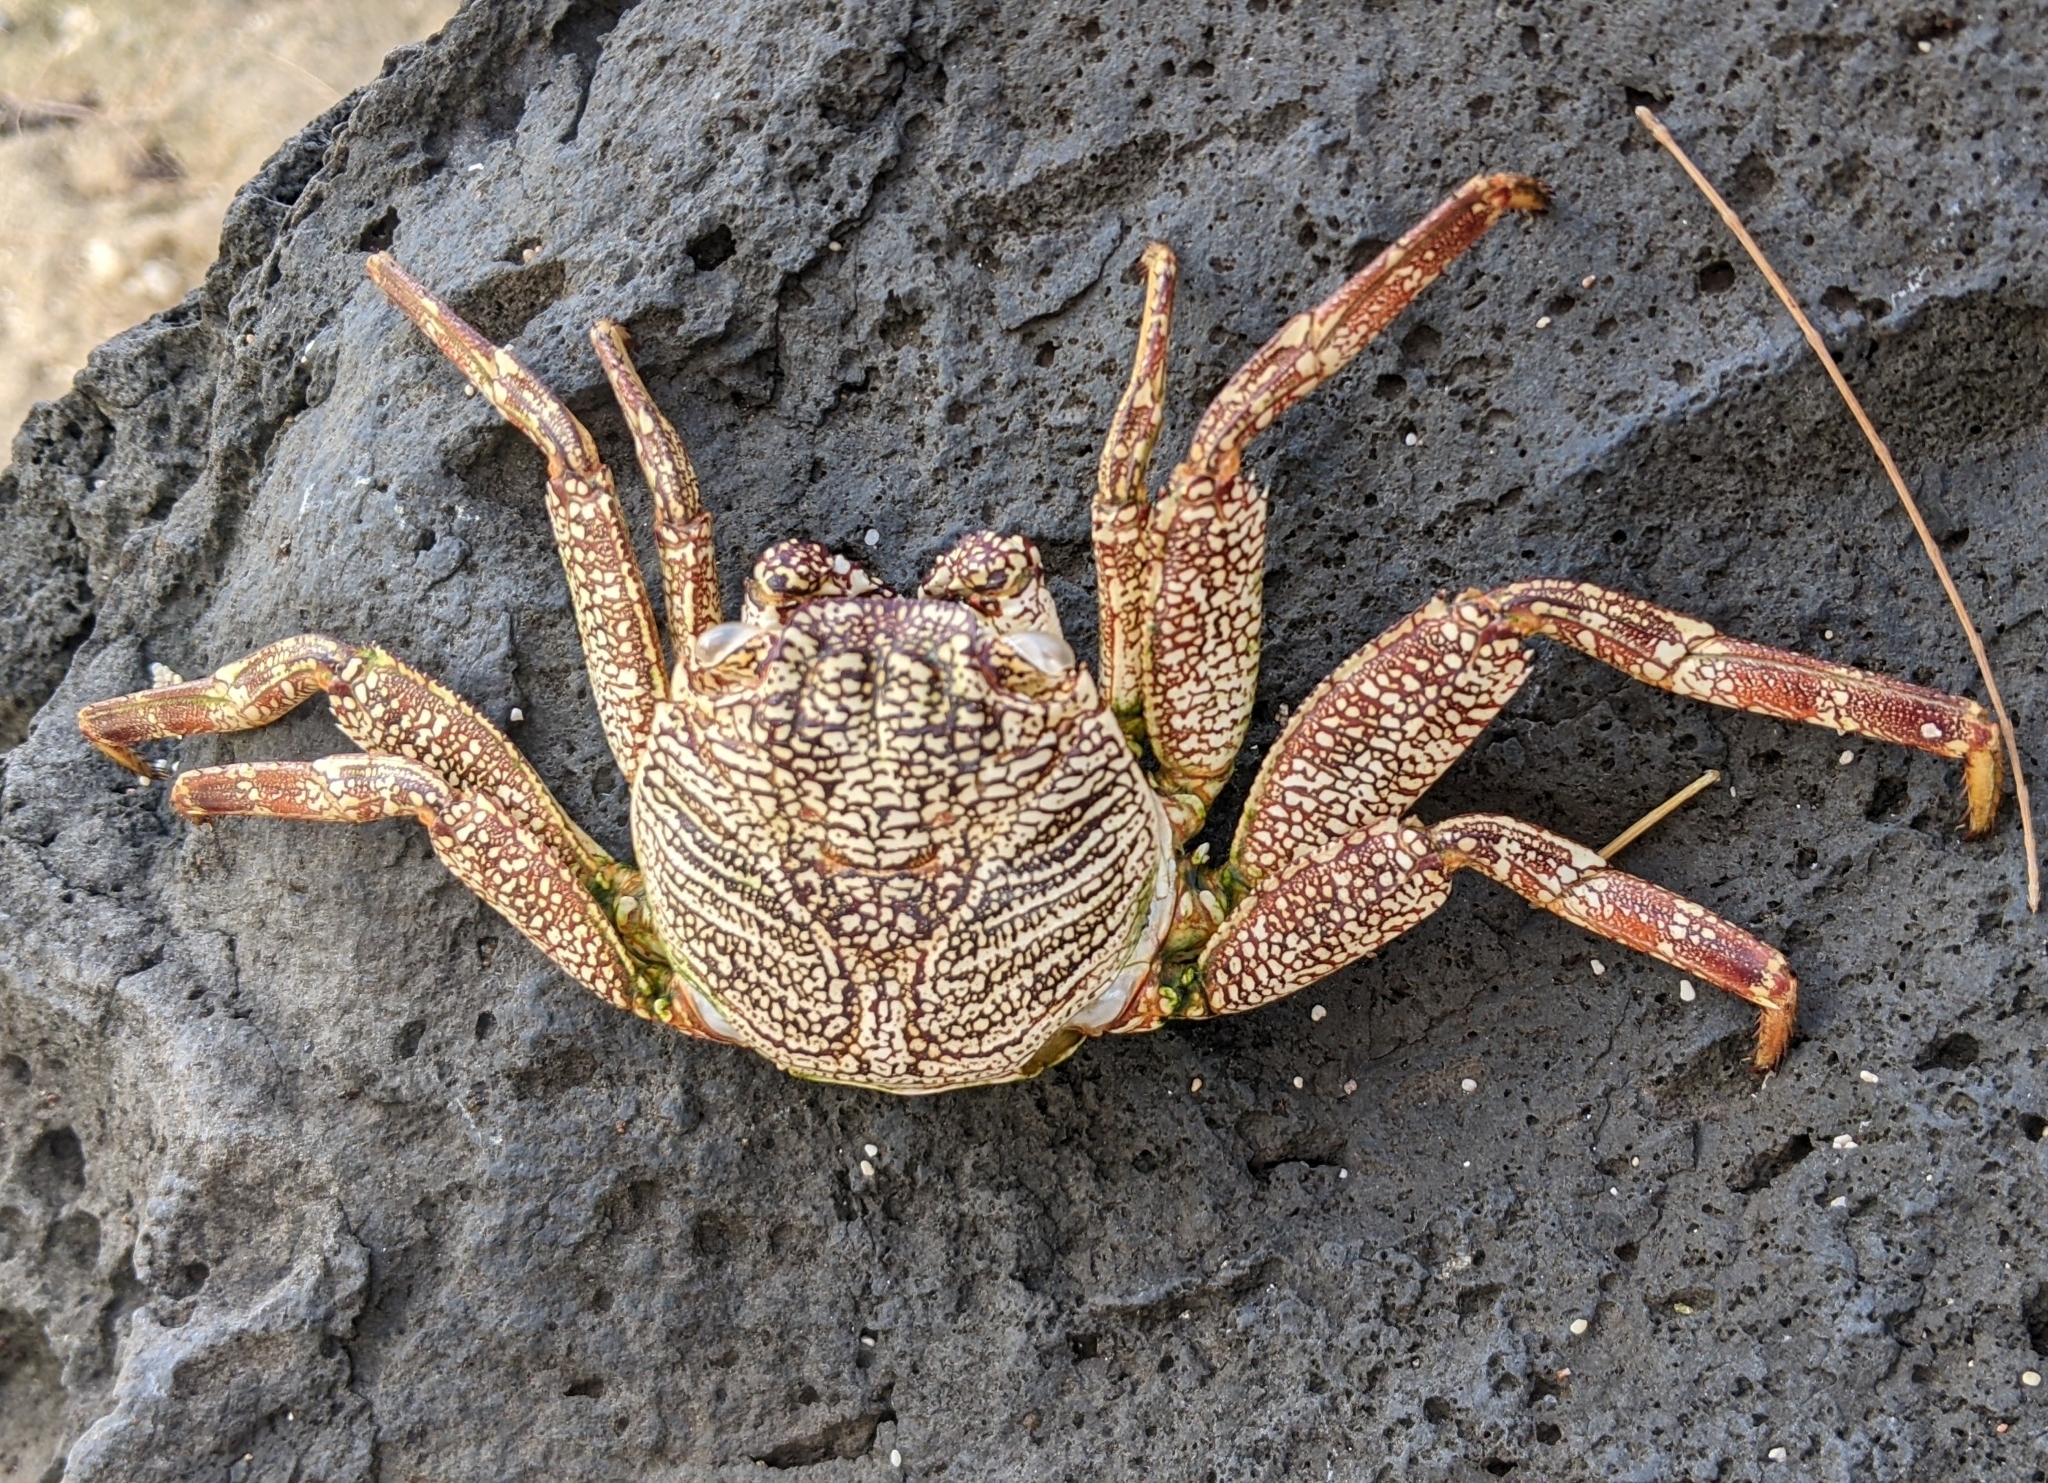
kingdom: Animalia
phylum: Arthropoda
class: Malacostraca
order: Decapoda
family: Grapsidae
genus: Grapsus
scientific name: Grapsus tenuicrustatus
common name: Natal lightfoot crab
